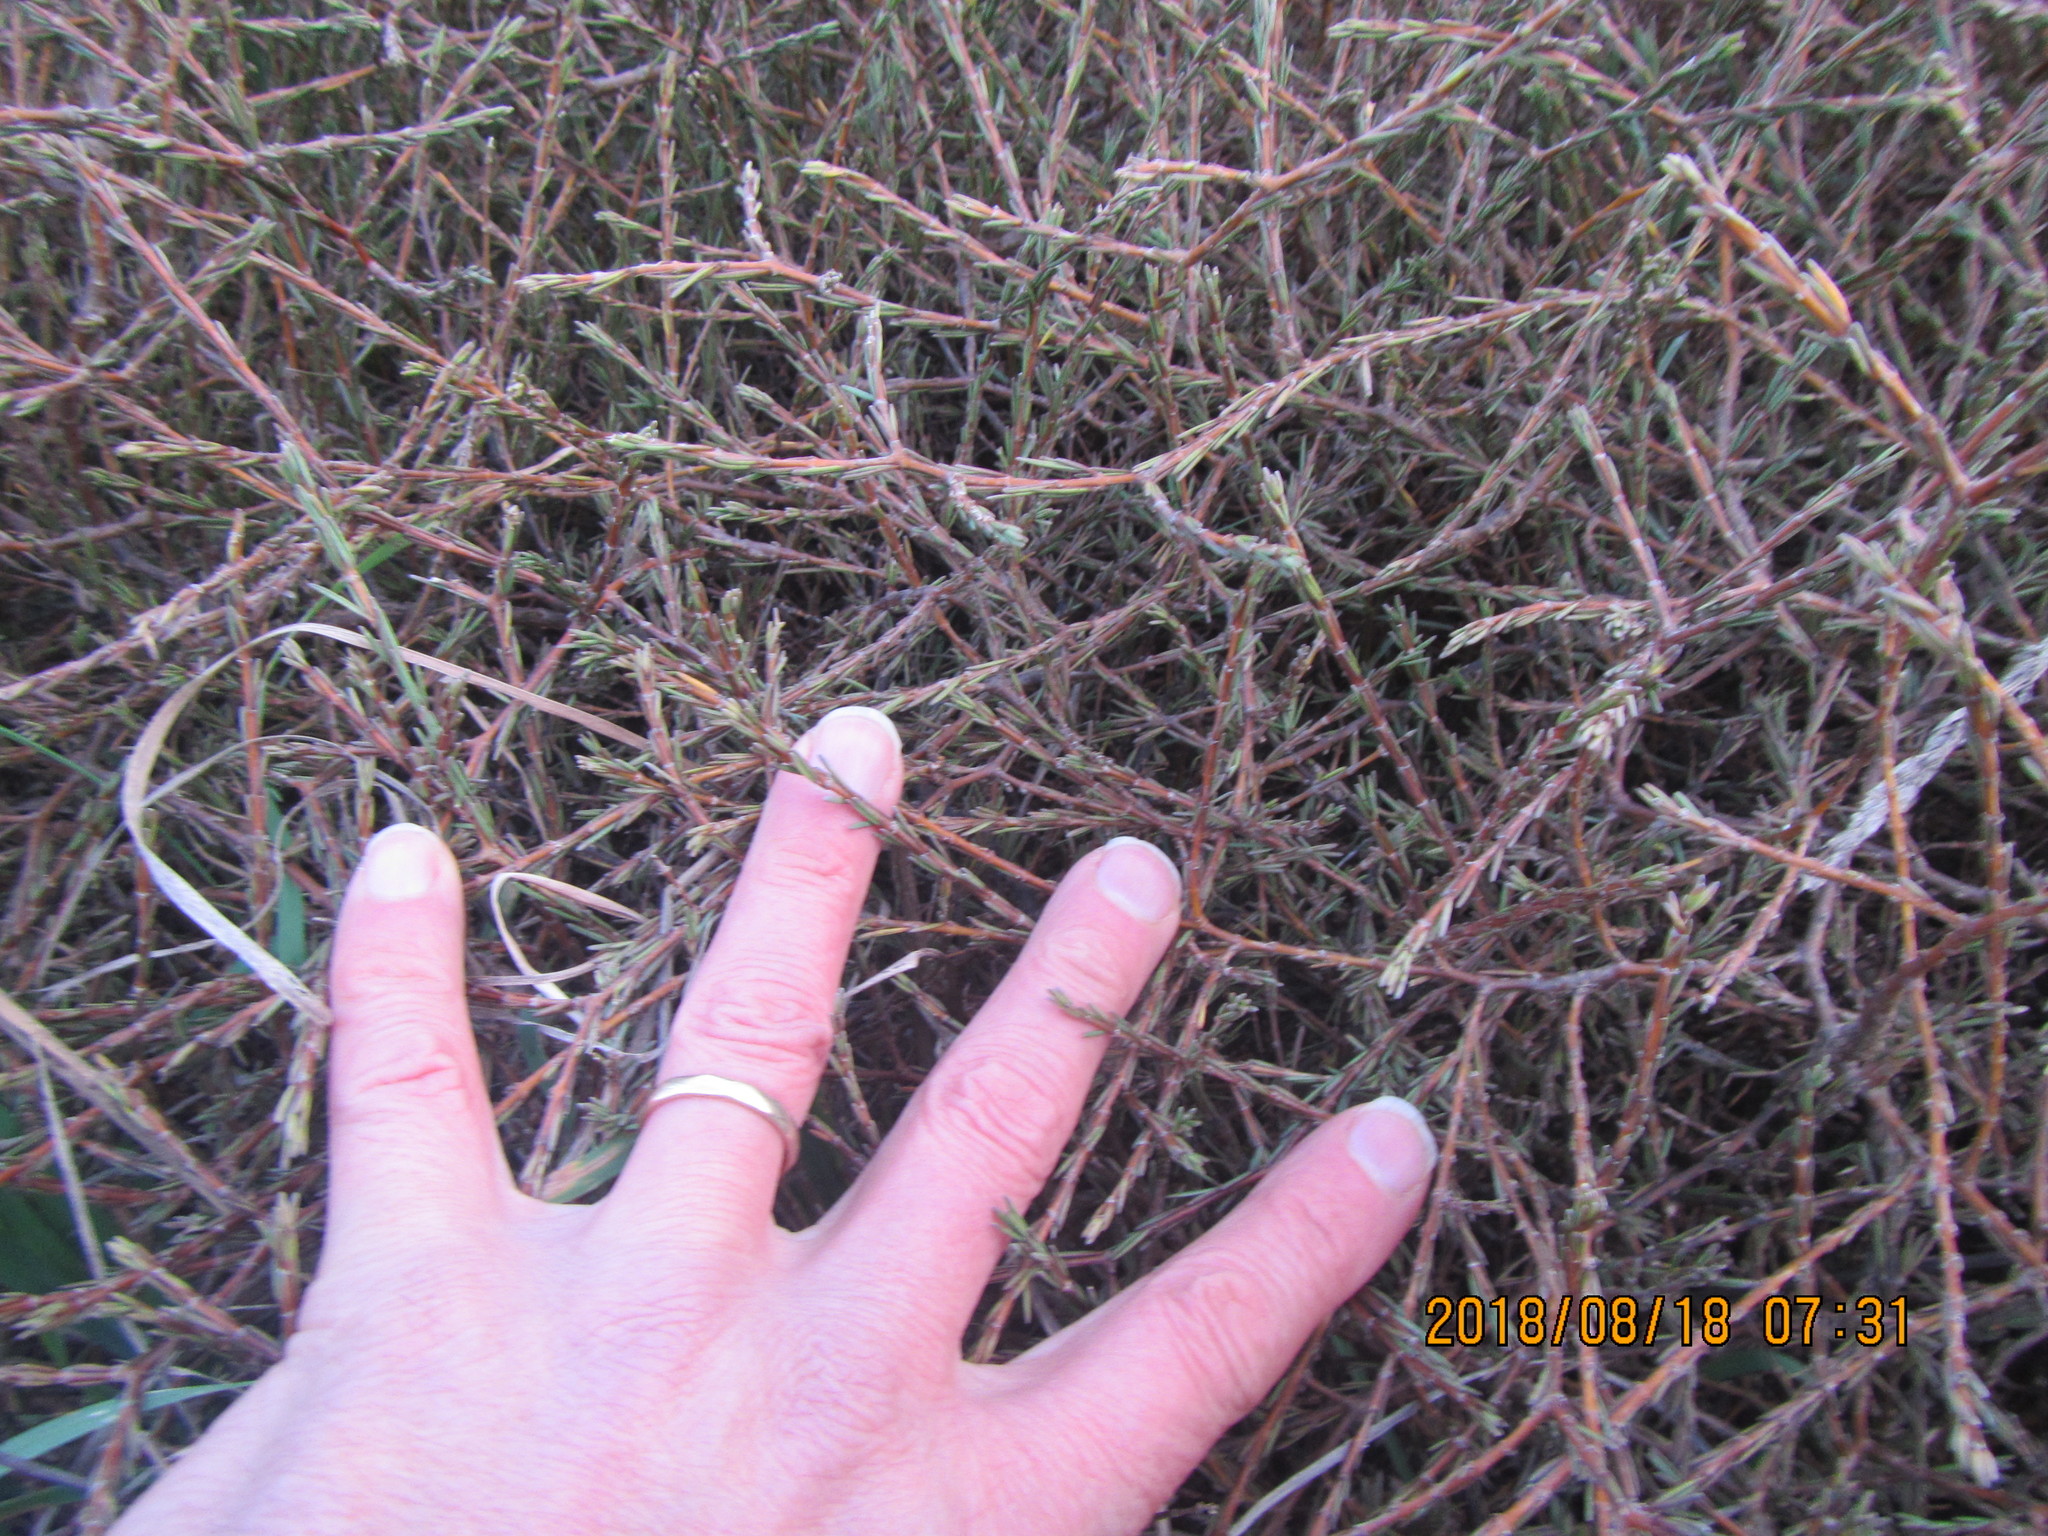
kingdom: Plantae
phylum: Tracheophyta
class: Magnoliopsida
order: Gentianales
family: Rubiaceae
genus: Coprosma
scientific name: Coprosma acerosa
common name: Sand coprosma
